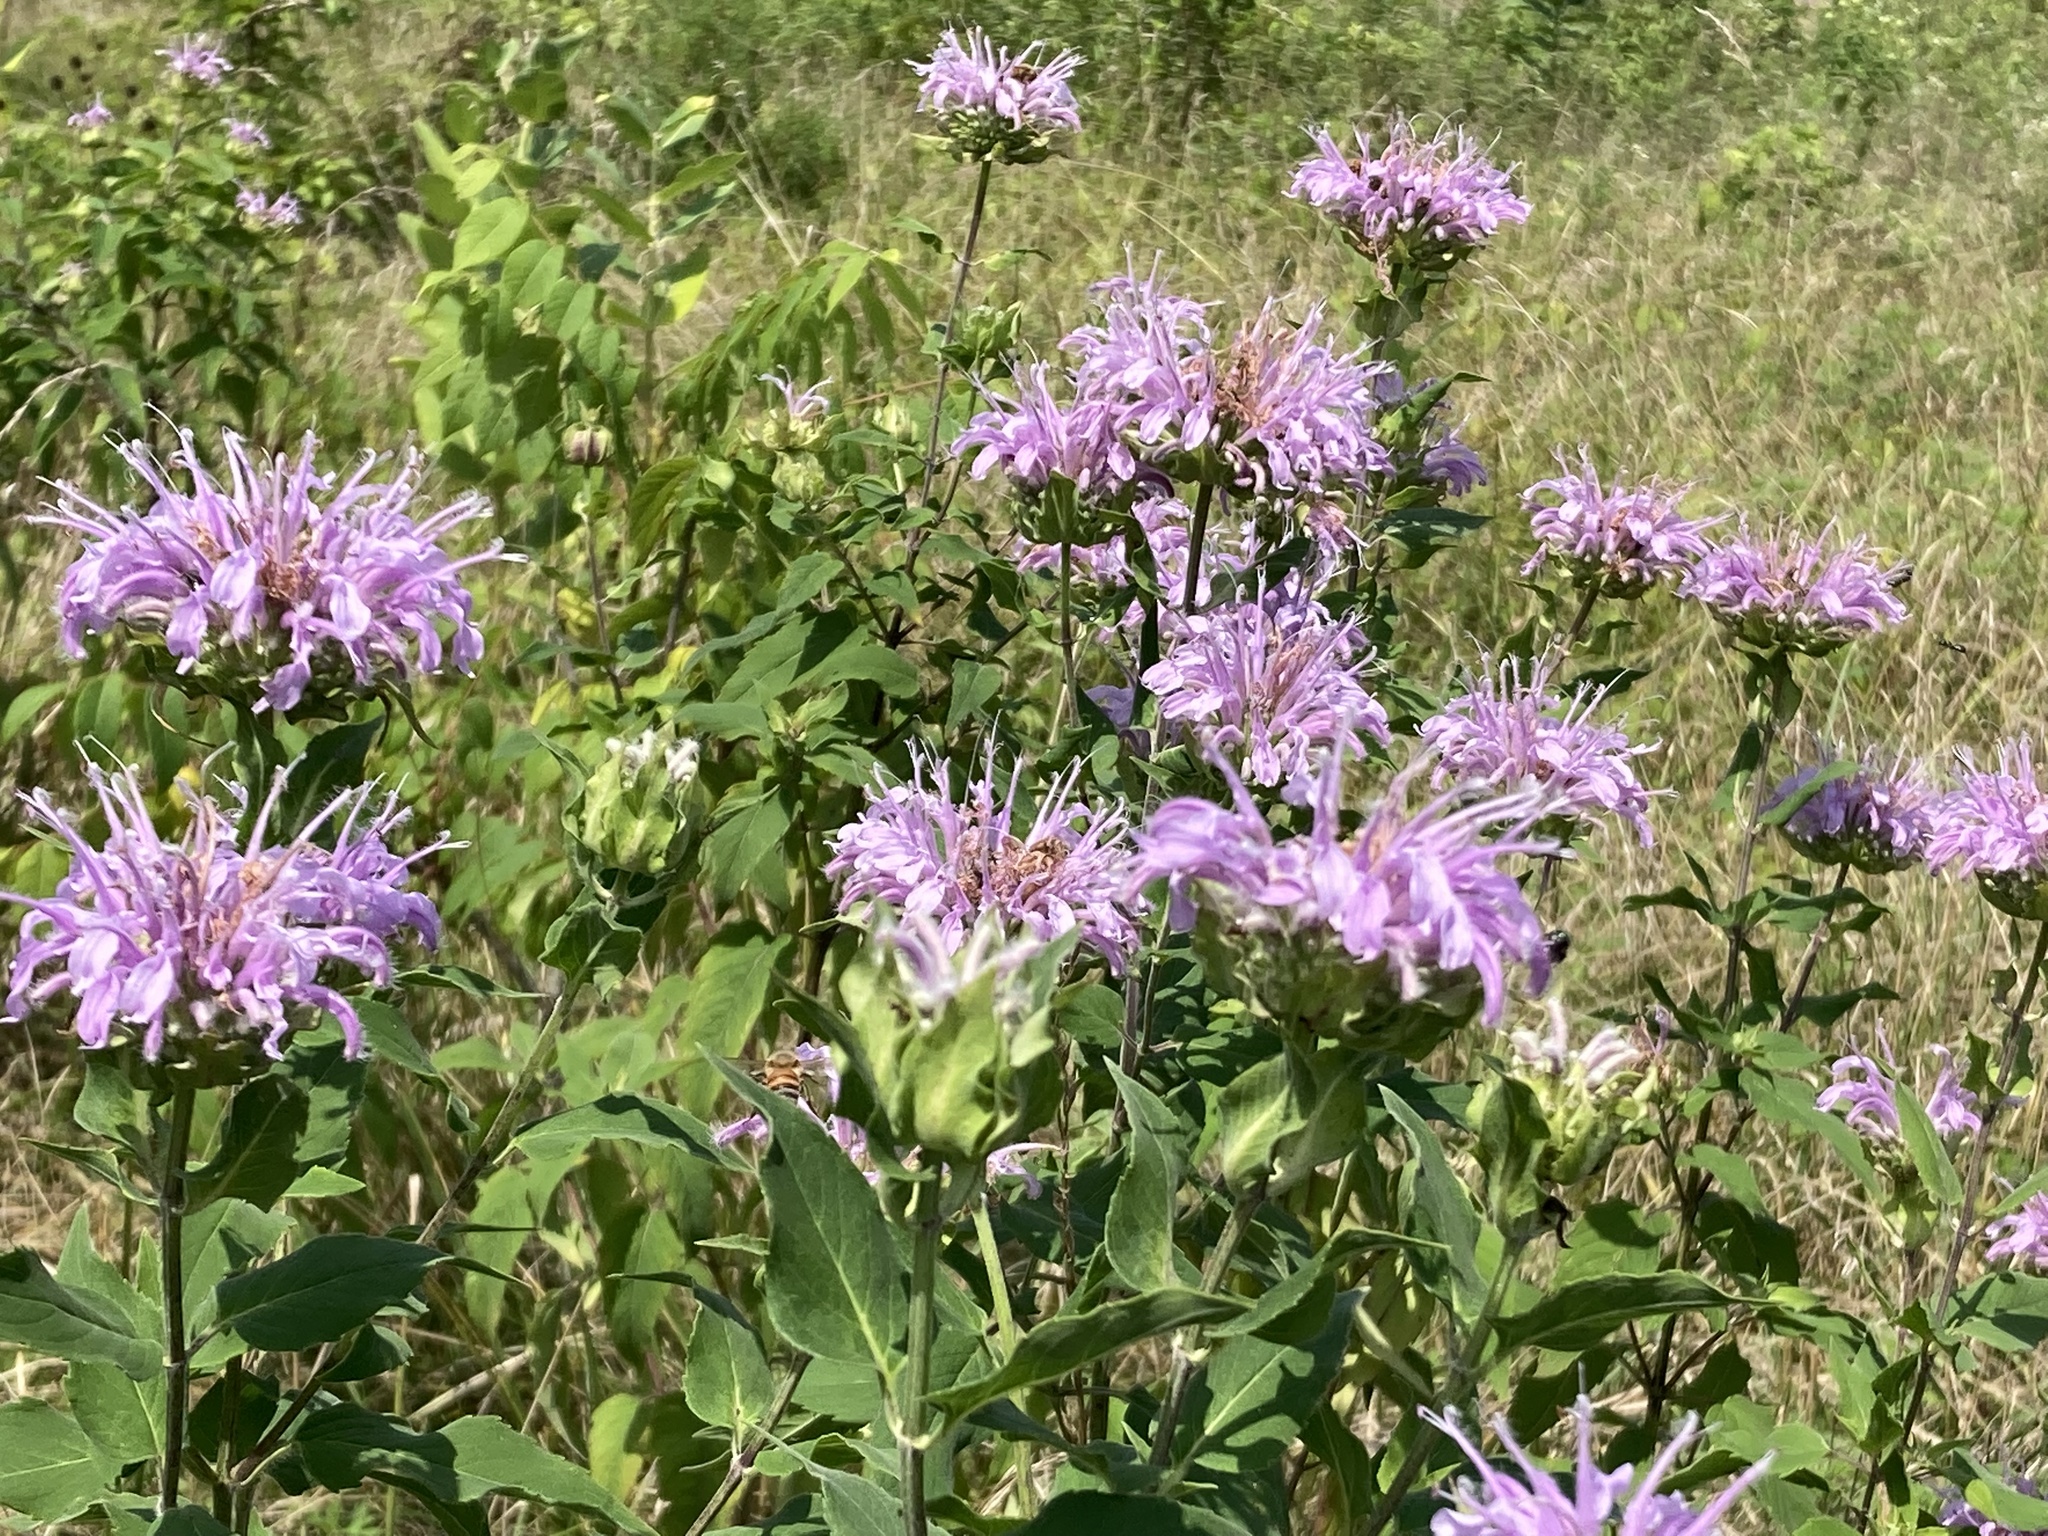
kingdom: Plantae
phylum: Tracheophyta
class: Magnoliopsida
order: Lamiales
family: Lamiaceae
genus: Monarda
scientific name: Monarda fistulosa
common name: Purple beebalm
